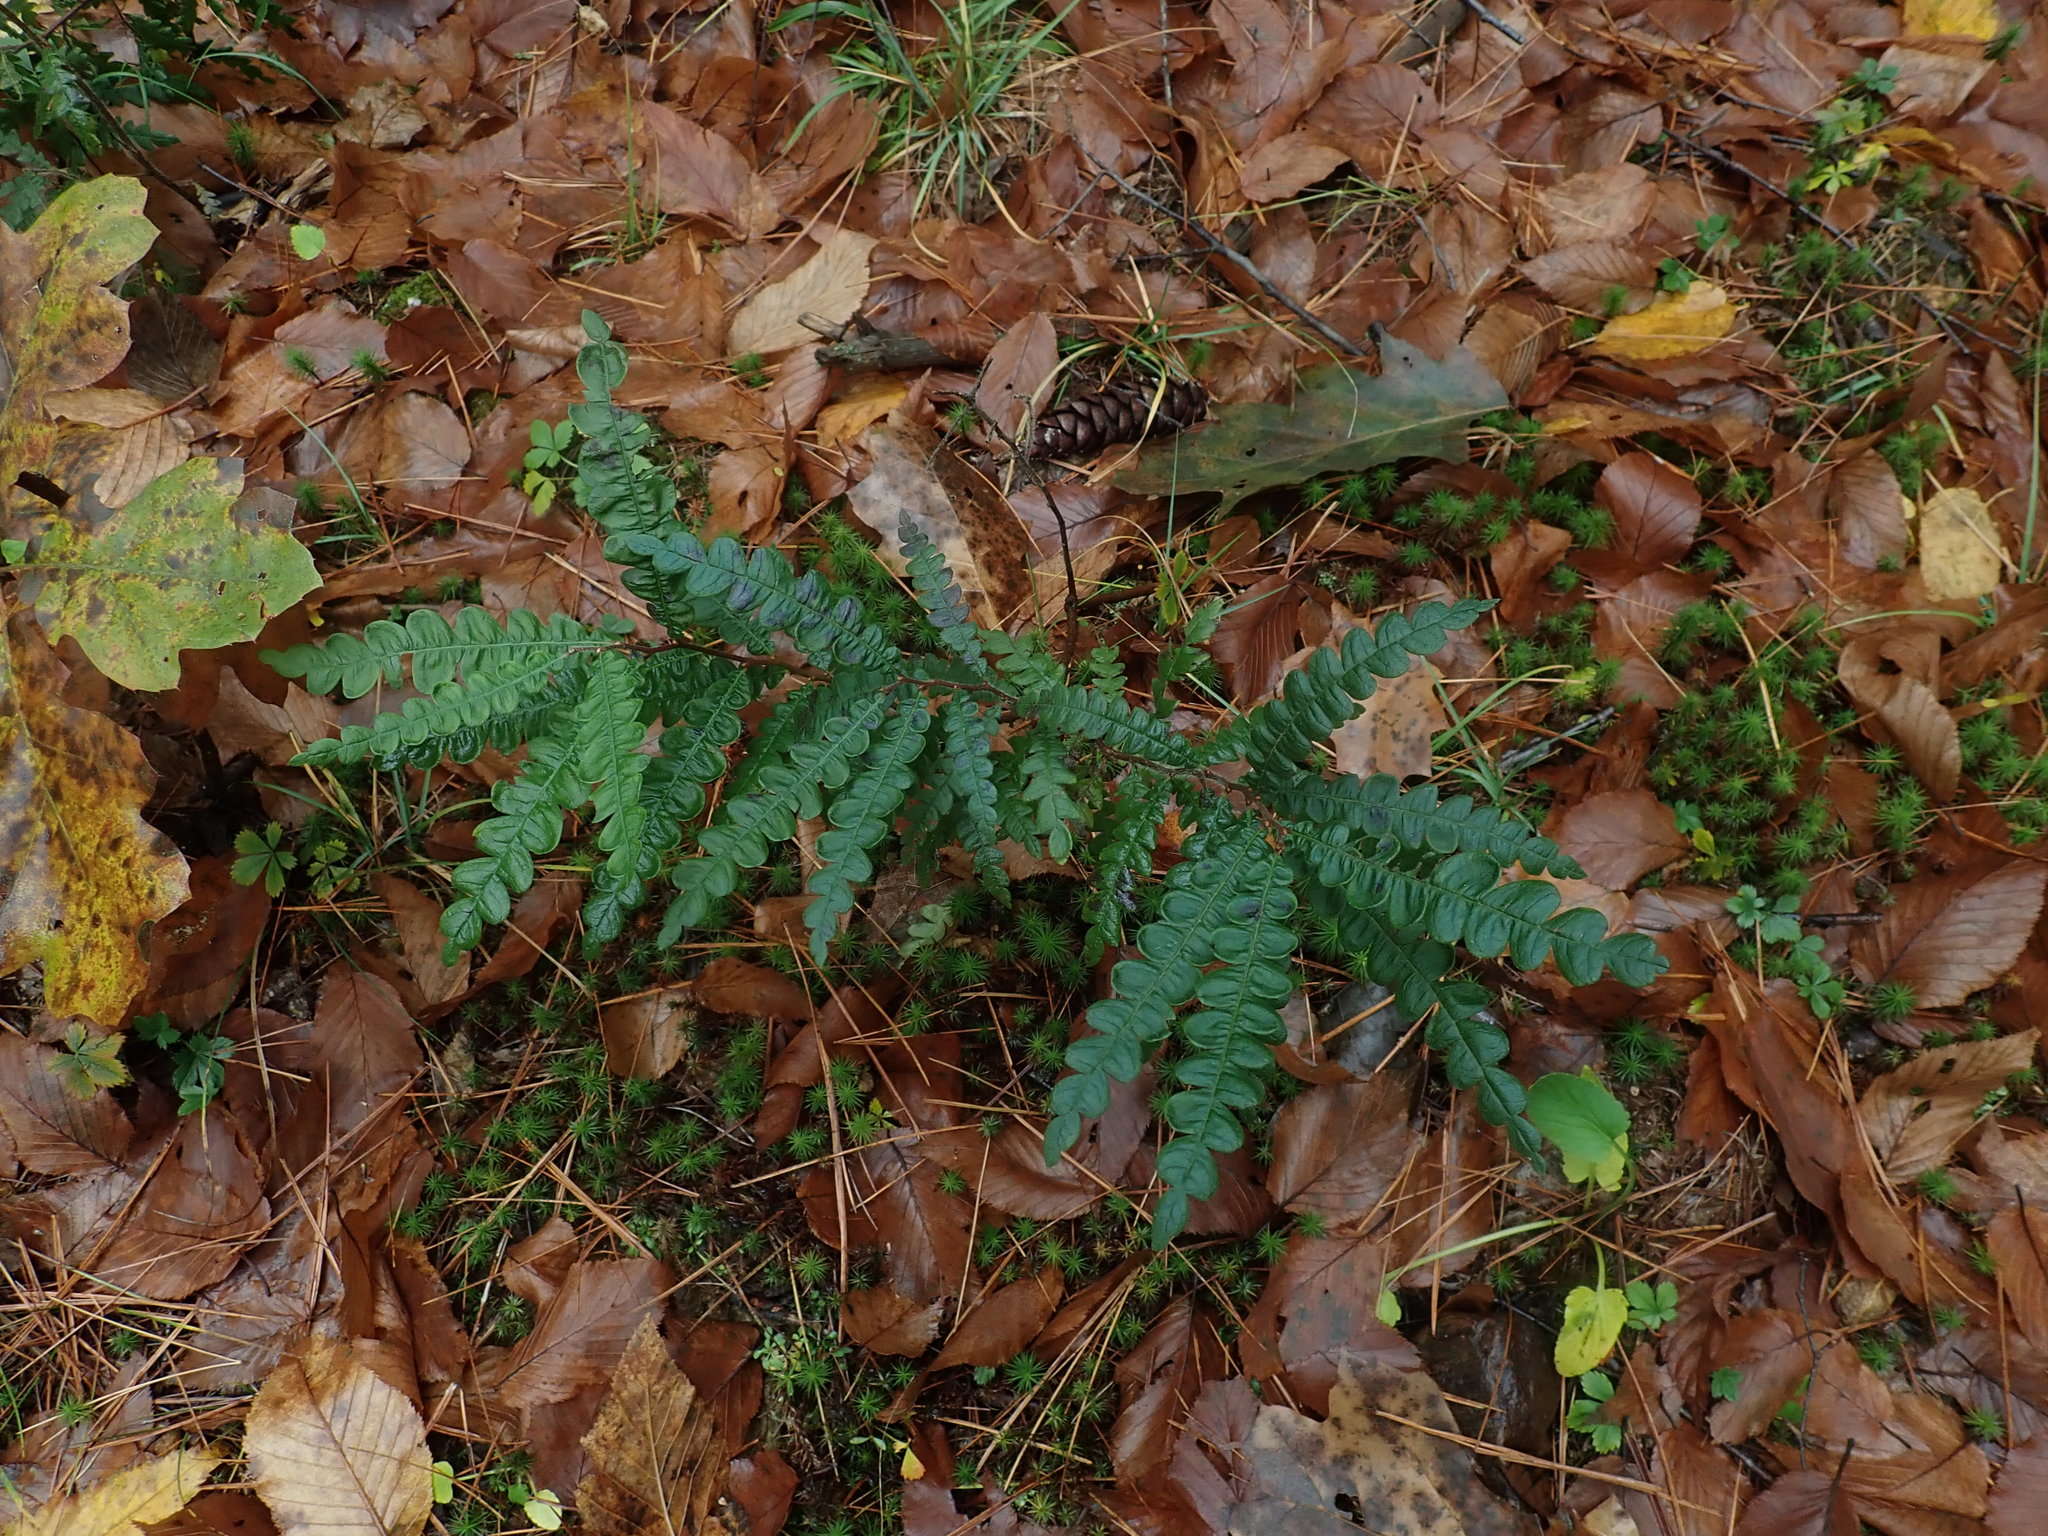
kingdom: Plantae
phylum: Tracheophyta
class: Magnoliopsida
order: Fagales
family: Myricaceae
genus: Comptonia
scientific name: Comptonia peregrina
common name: Sweet-fern
